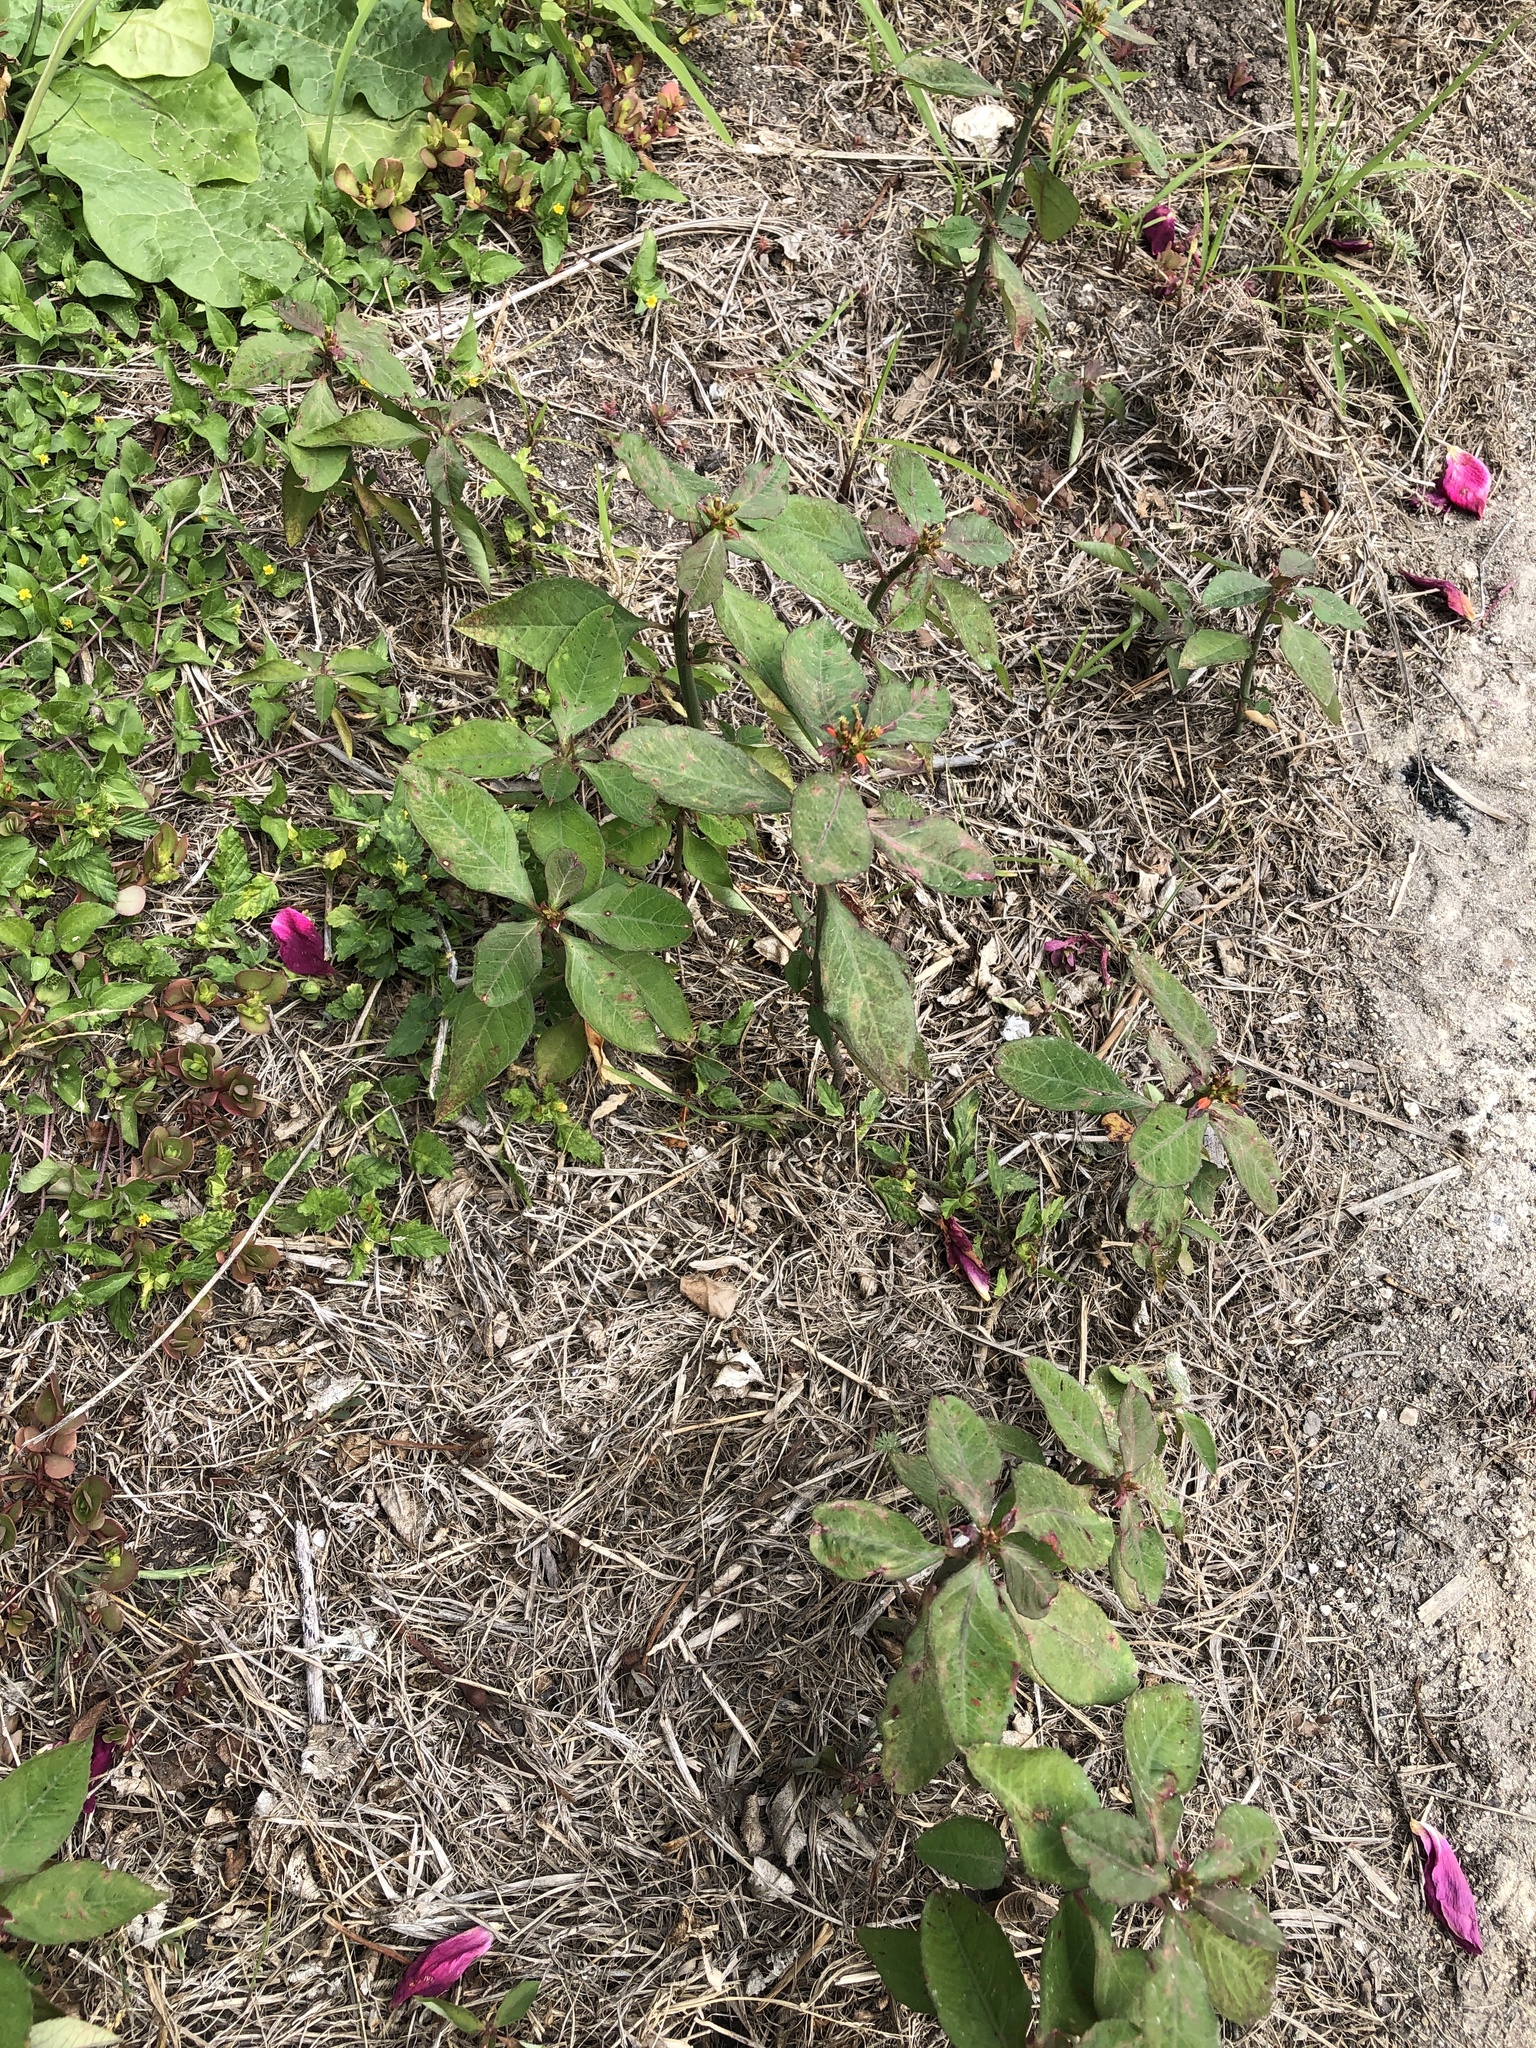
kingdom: Plantae
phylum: Tracheophyta
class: Magnoliopsida
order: Malpighiales
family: Euphorbiaceae
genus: Euphorbia
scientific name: Euphorbia heterophylla
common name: Mexican fireplant
